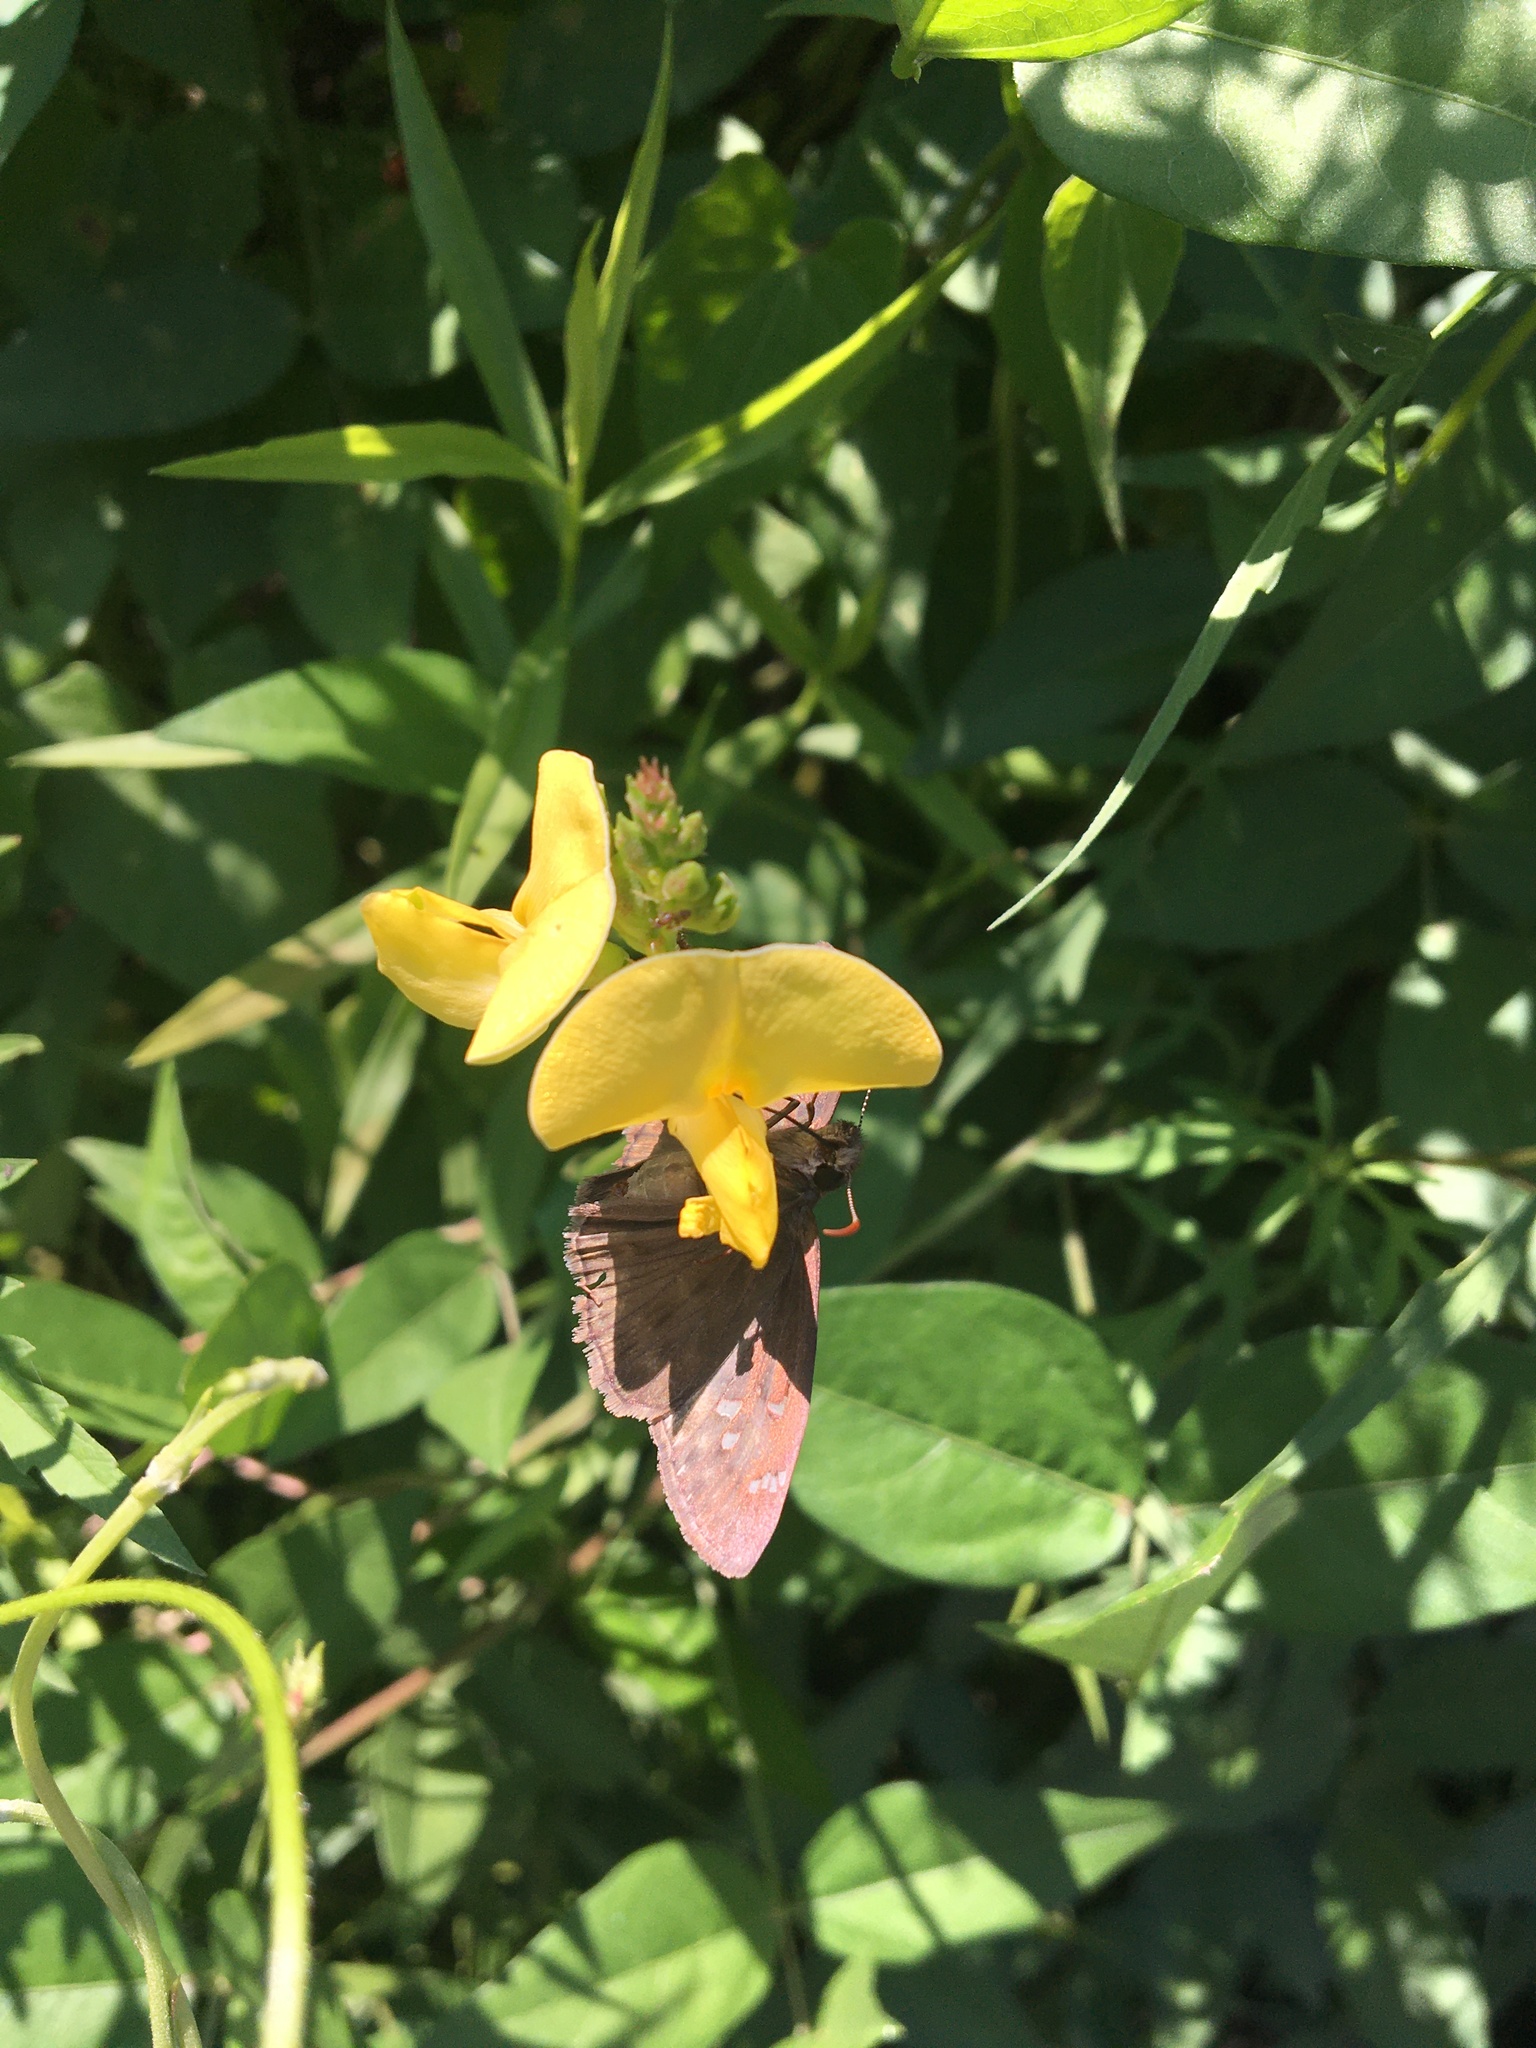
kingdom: Animalia
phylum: Arthropoda
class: Insecta
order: Lepidoptera
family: Hesperiidae
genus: Erynnis
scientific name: Erynnis horatius
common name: Horace's duskywing
